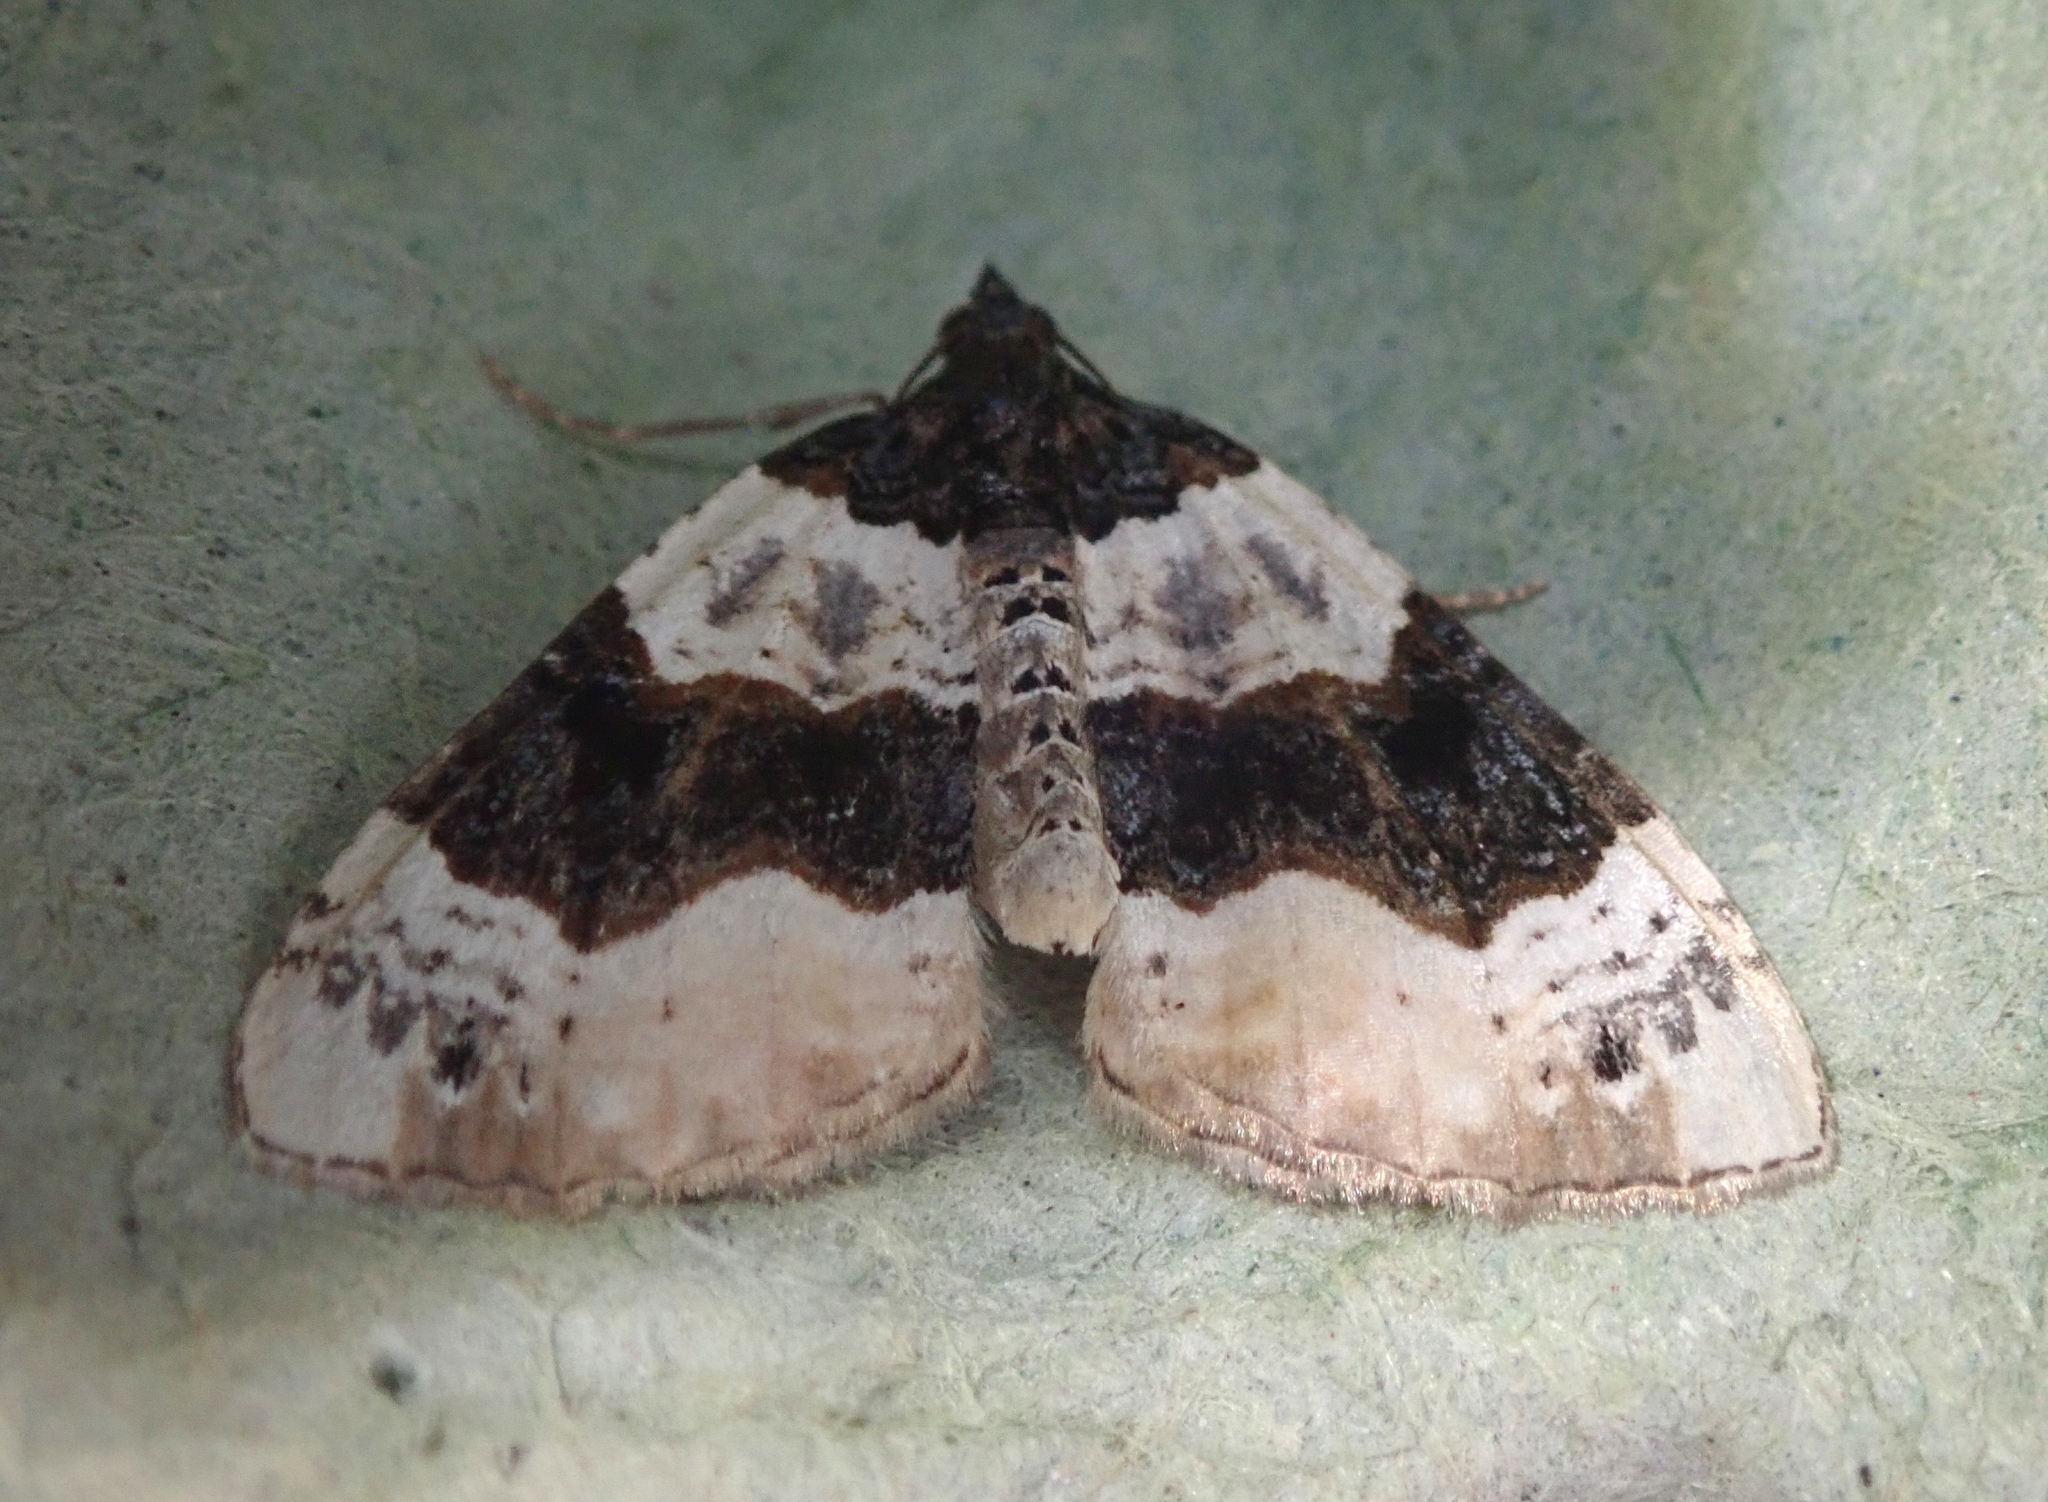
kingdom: Animalia
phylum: Arthropoda
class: Insecta
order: Lepidoptera
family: Geometridae
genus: Cosmorhoe
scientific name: Cosmorhoe ocellata
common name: Purple bar
